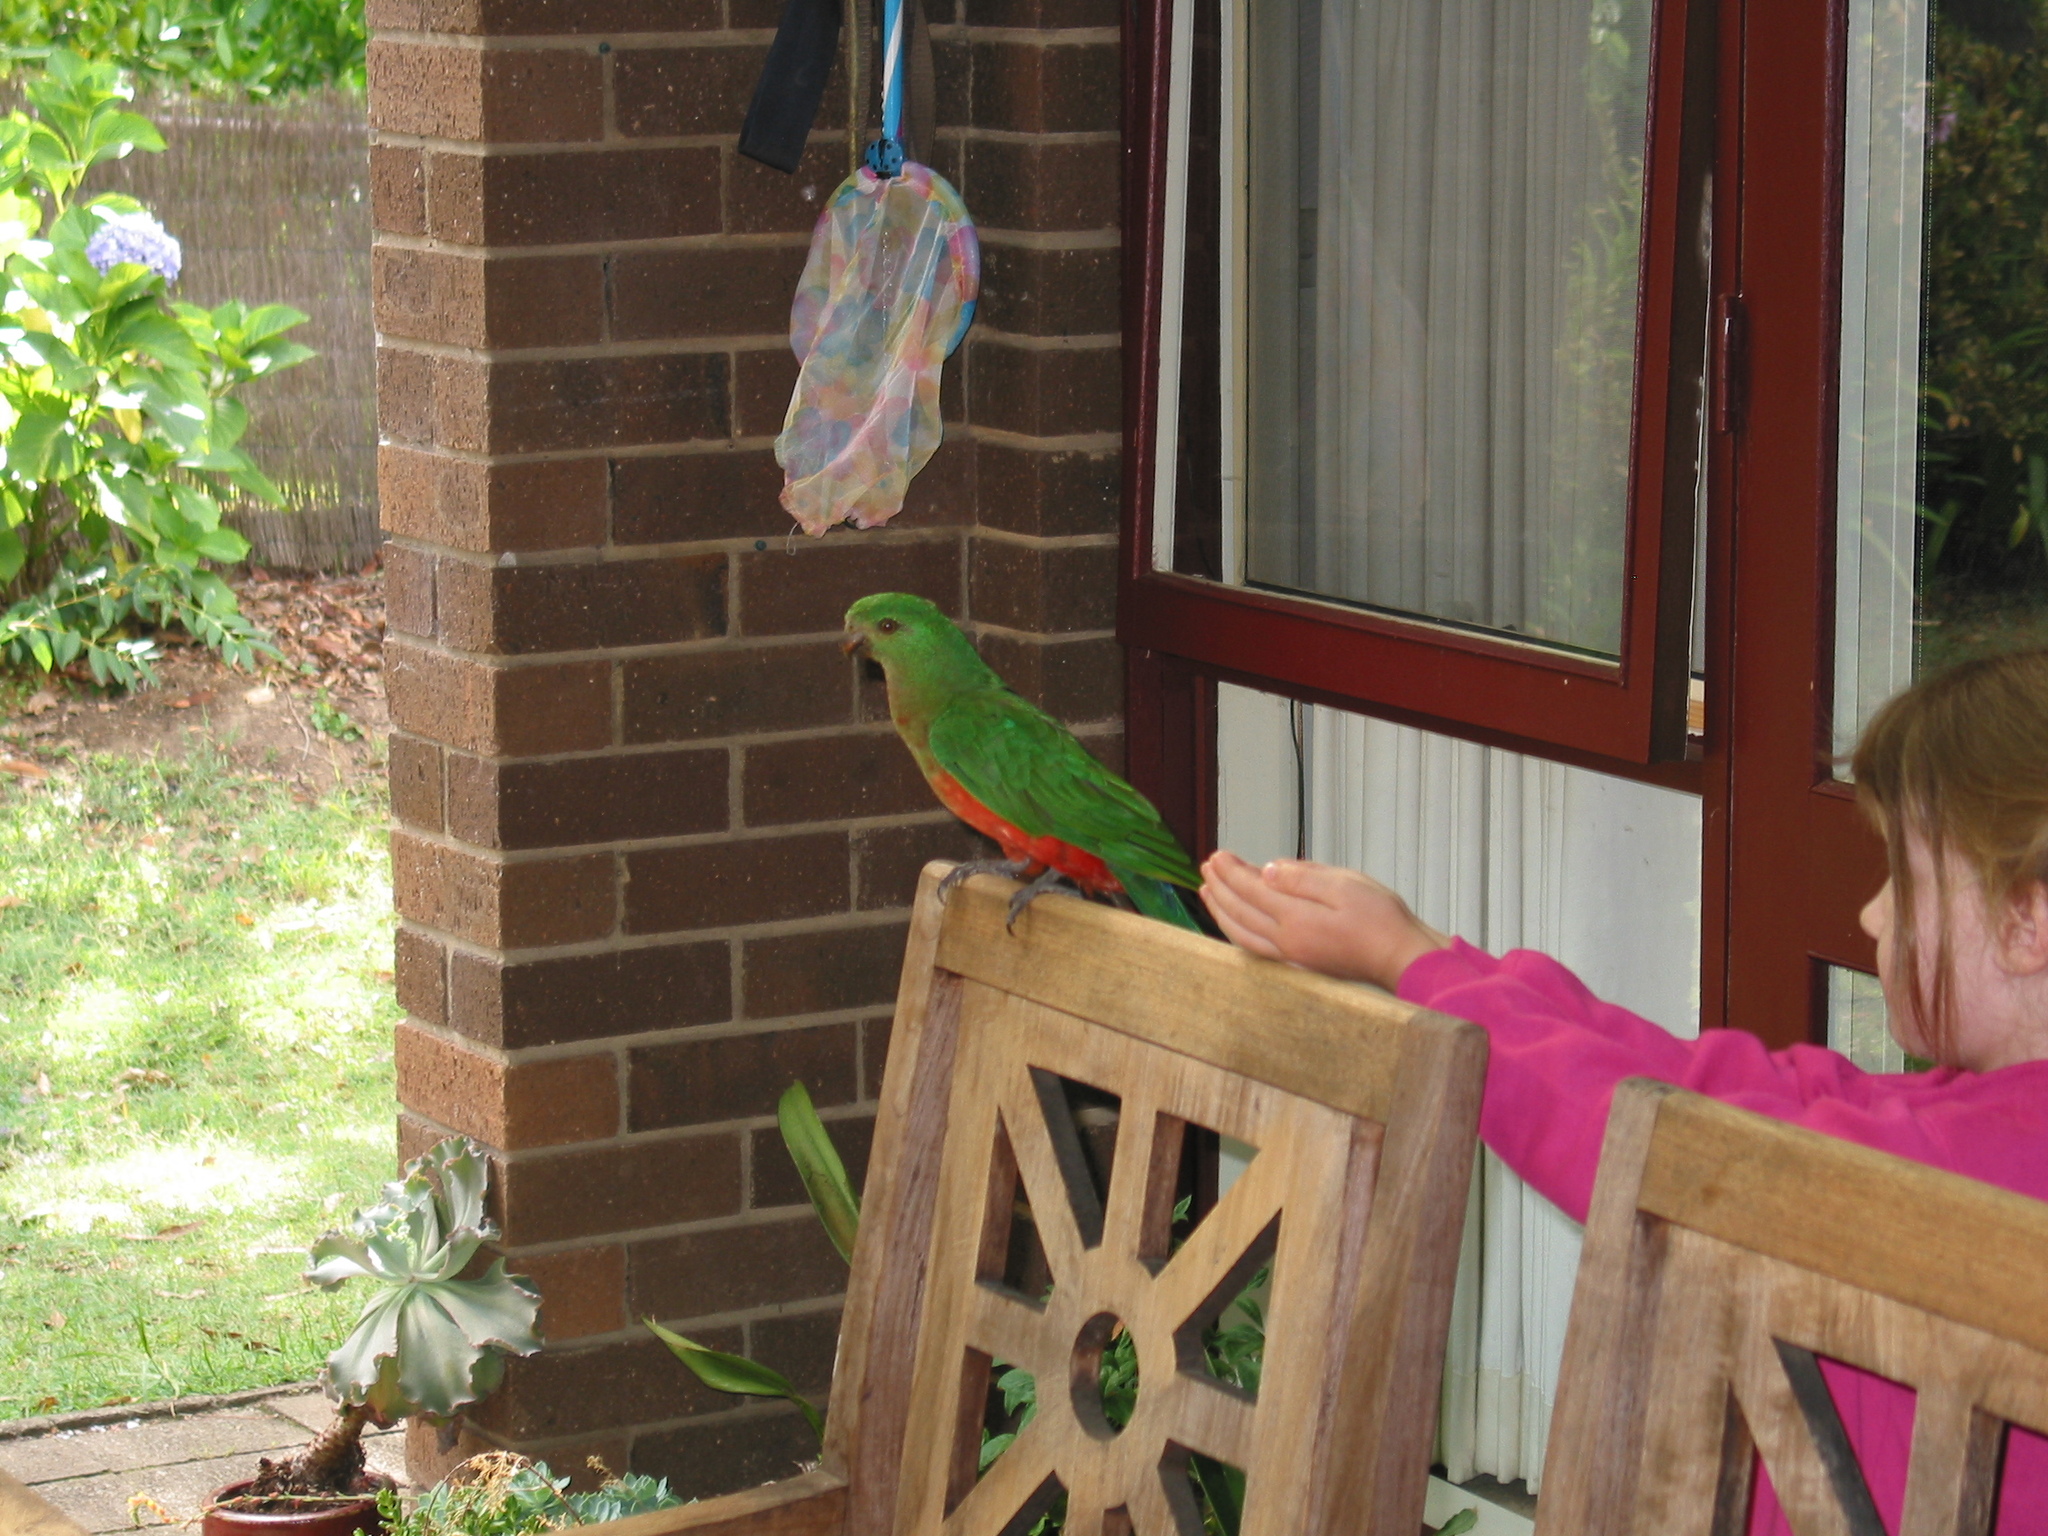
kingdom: Animalia
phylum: Chordata
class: Aves
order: Psittaciformes
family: Psittacidae
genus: Alisterus
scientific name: Alisterus scapularis
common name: Australian king parrot
